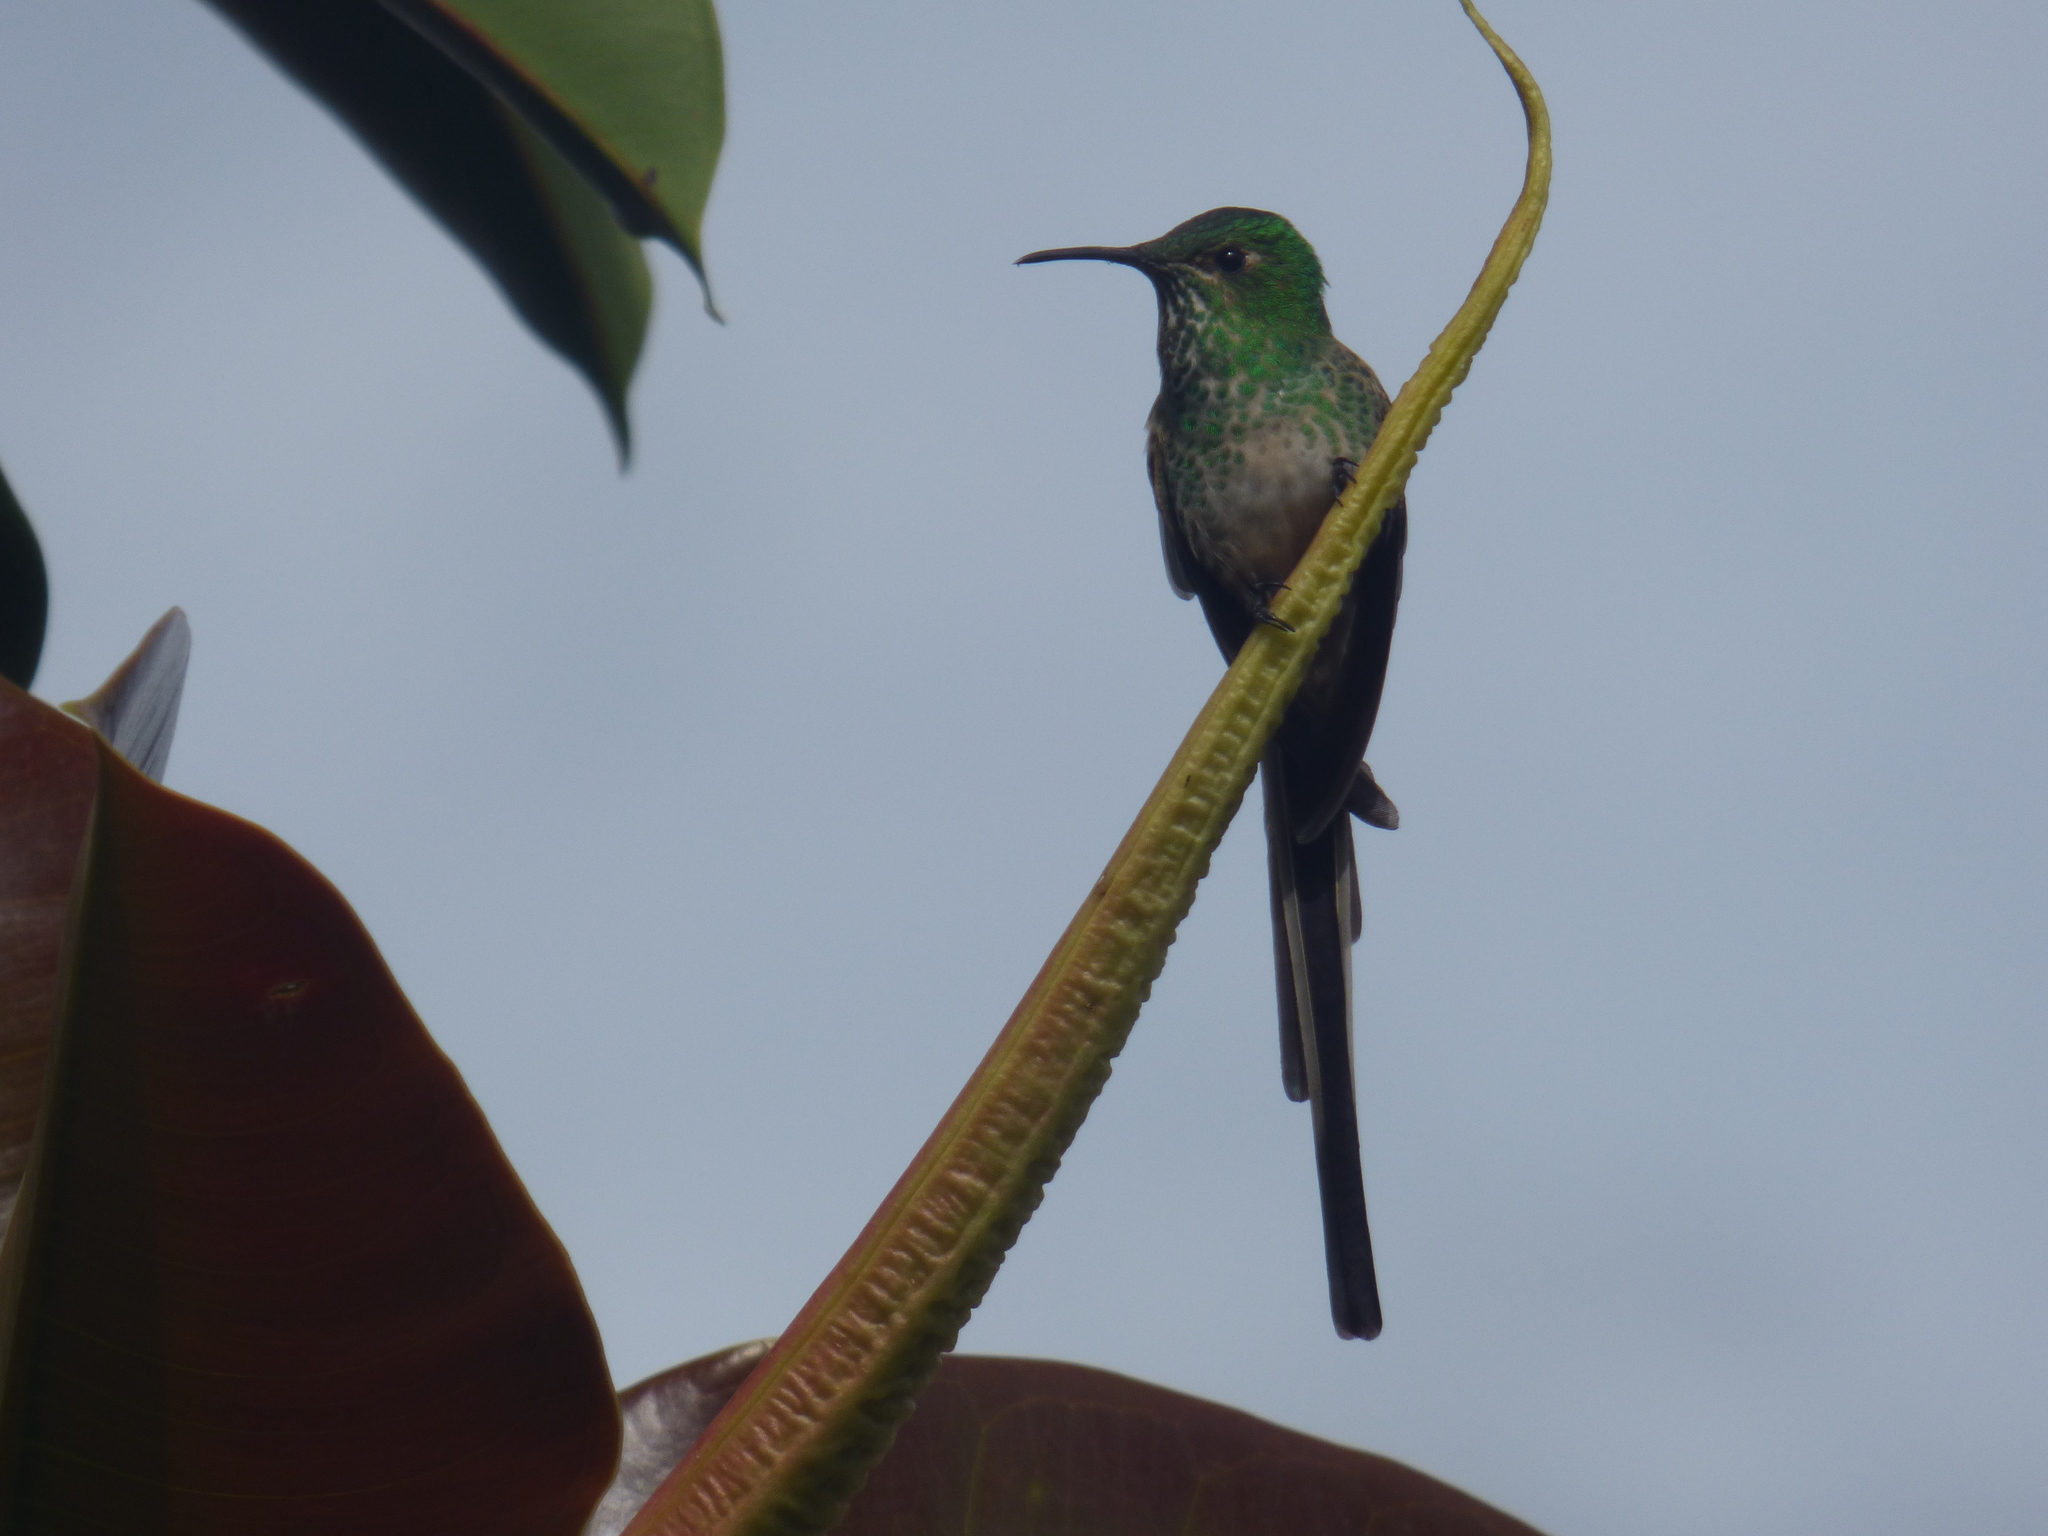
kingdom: Animalia
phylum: Chordata
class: Aves
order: Apodiformes
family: Trochilidae
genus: Lesbia
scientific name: Lesbia victoriae
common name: Black-tailed trainbearer
